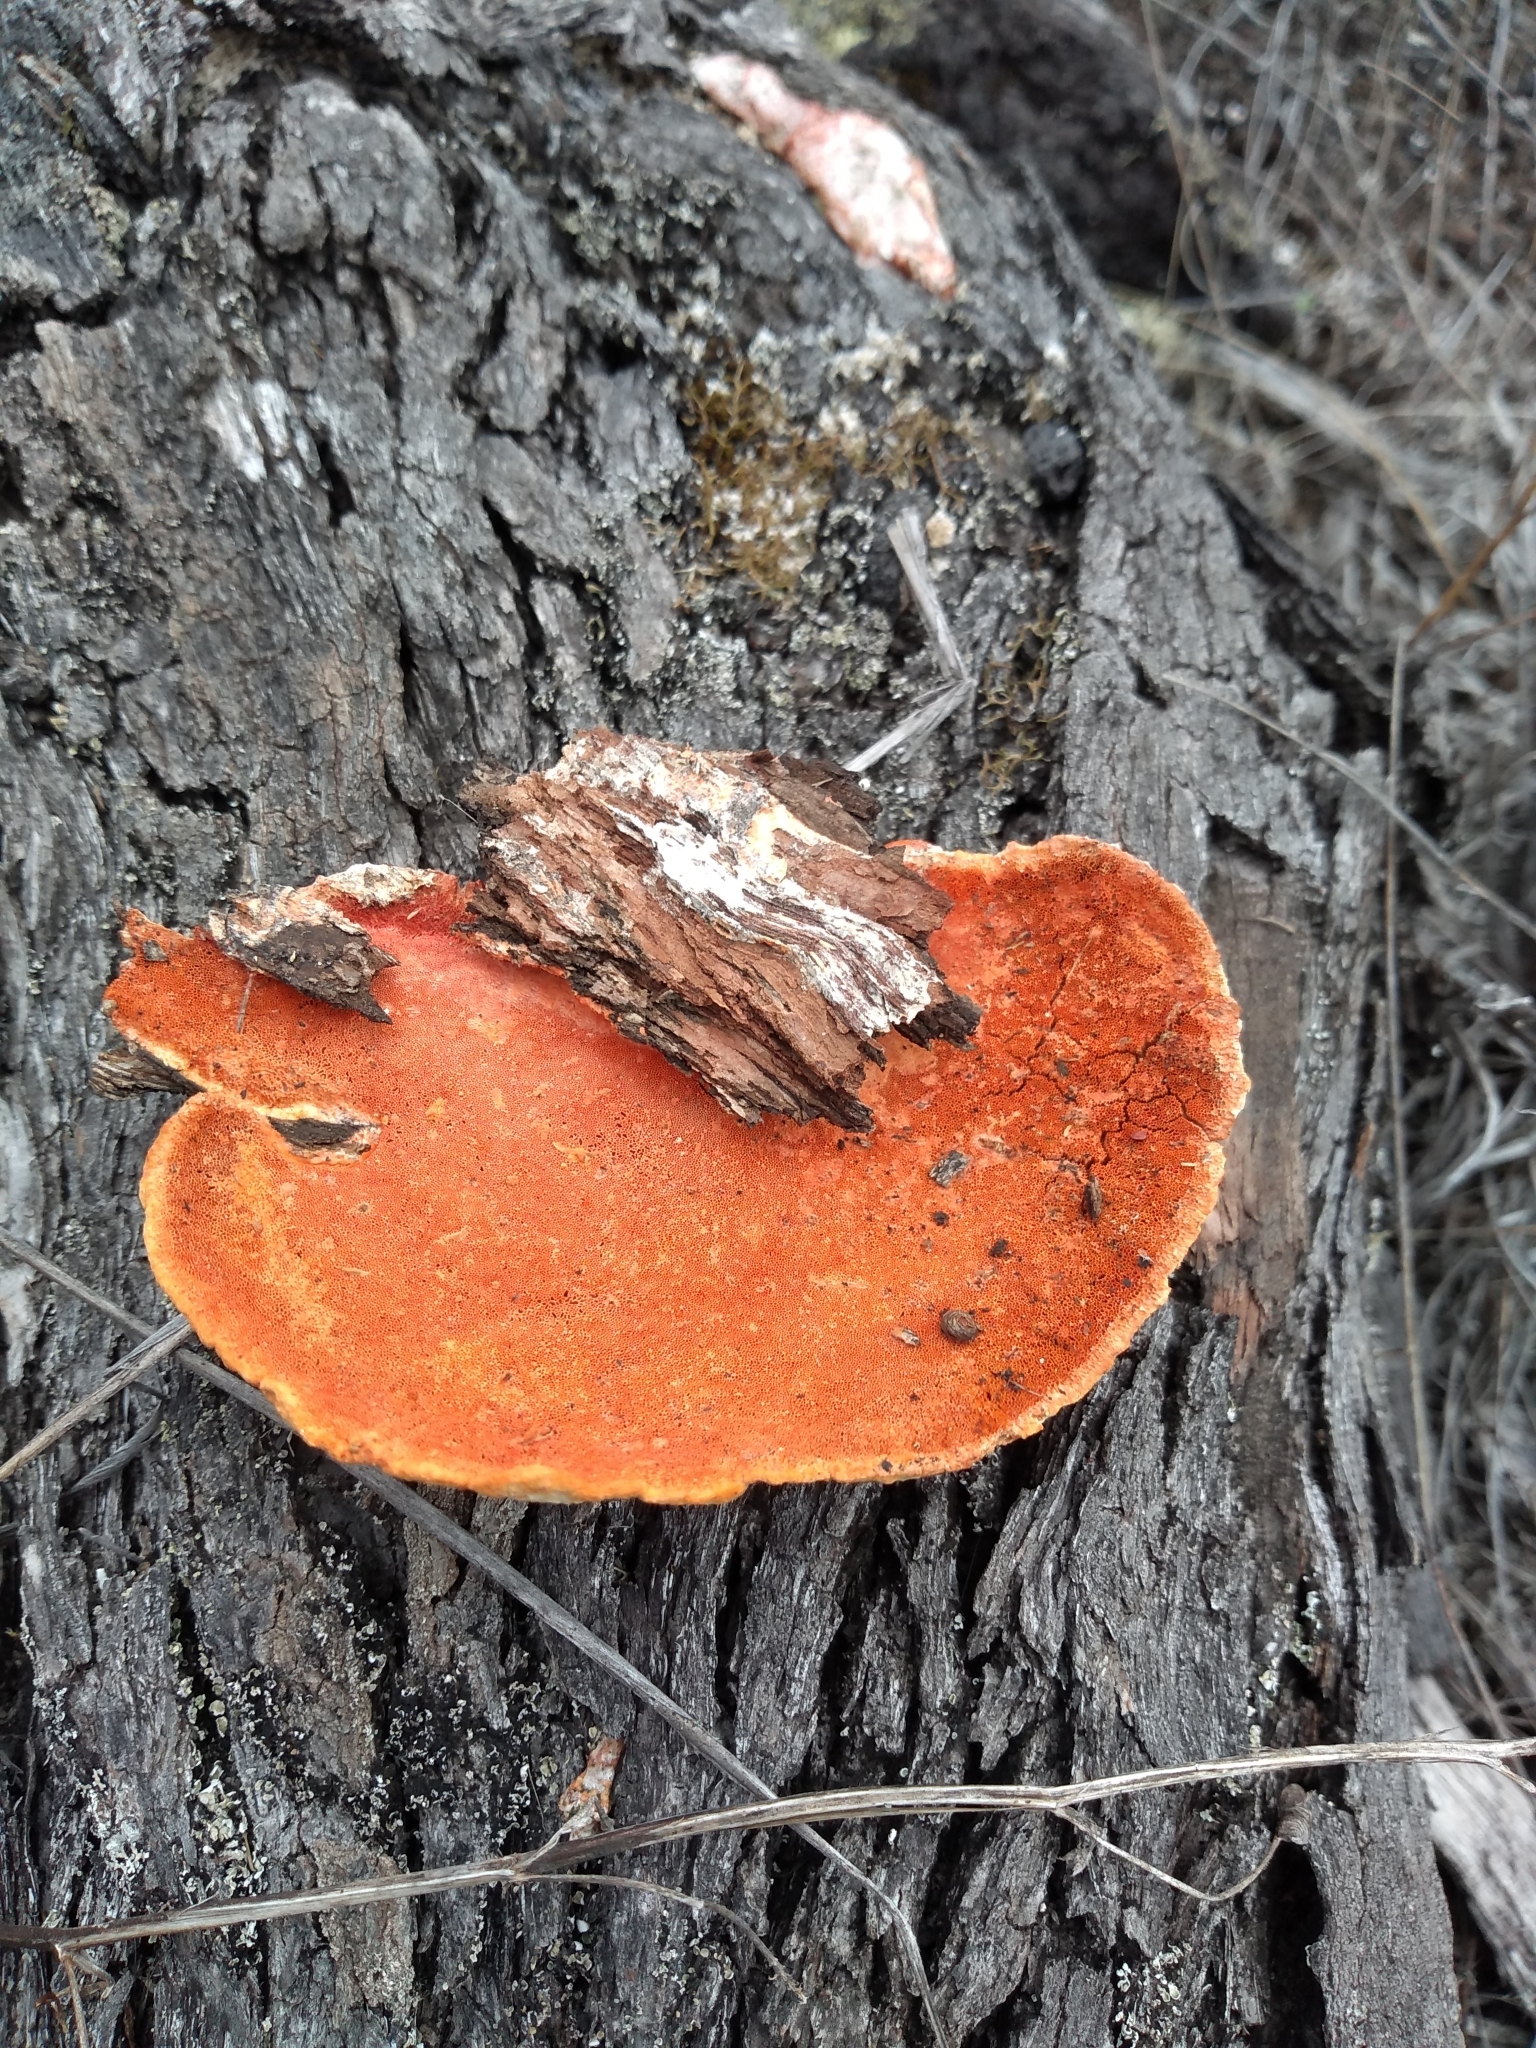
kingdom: Fungi
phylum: Basidiomycota
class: Agaricomycetes
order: Polyporales
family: Polyporaceae
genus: Trametes
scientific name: Trametes coccinea
